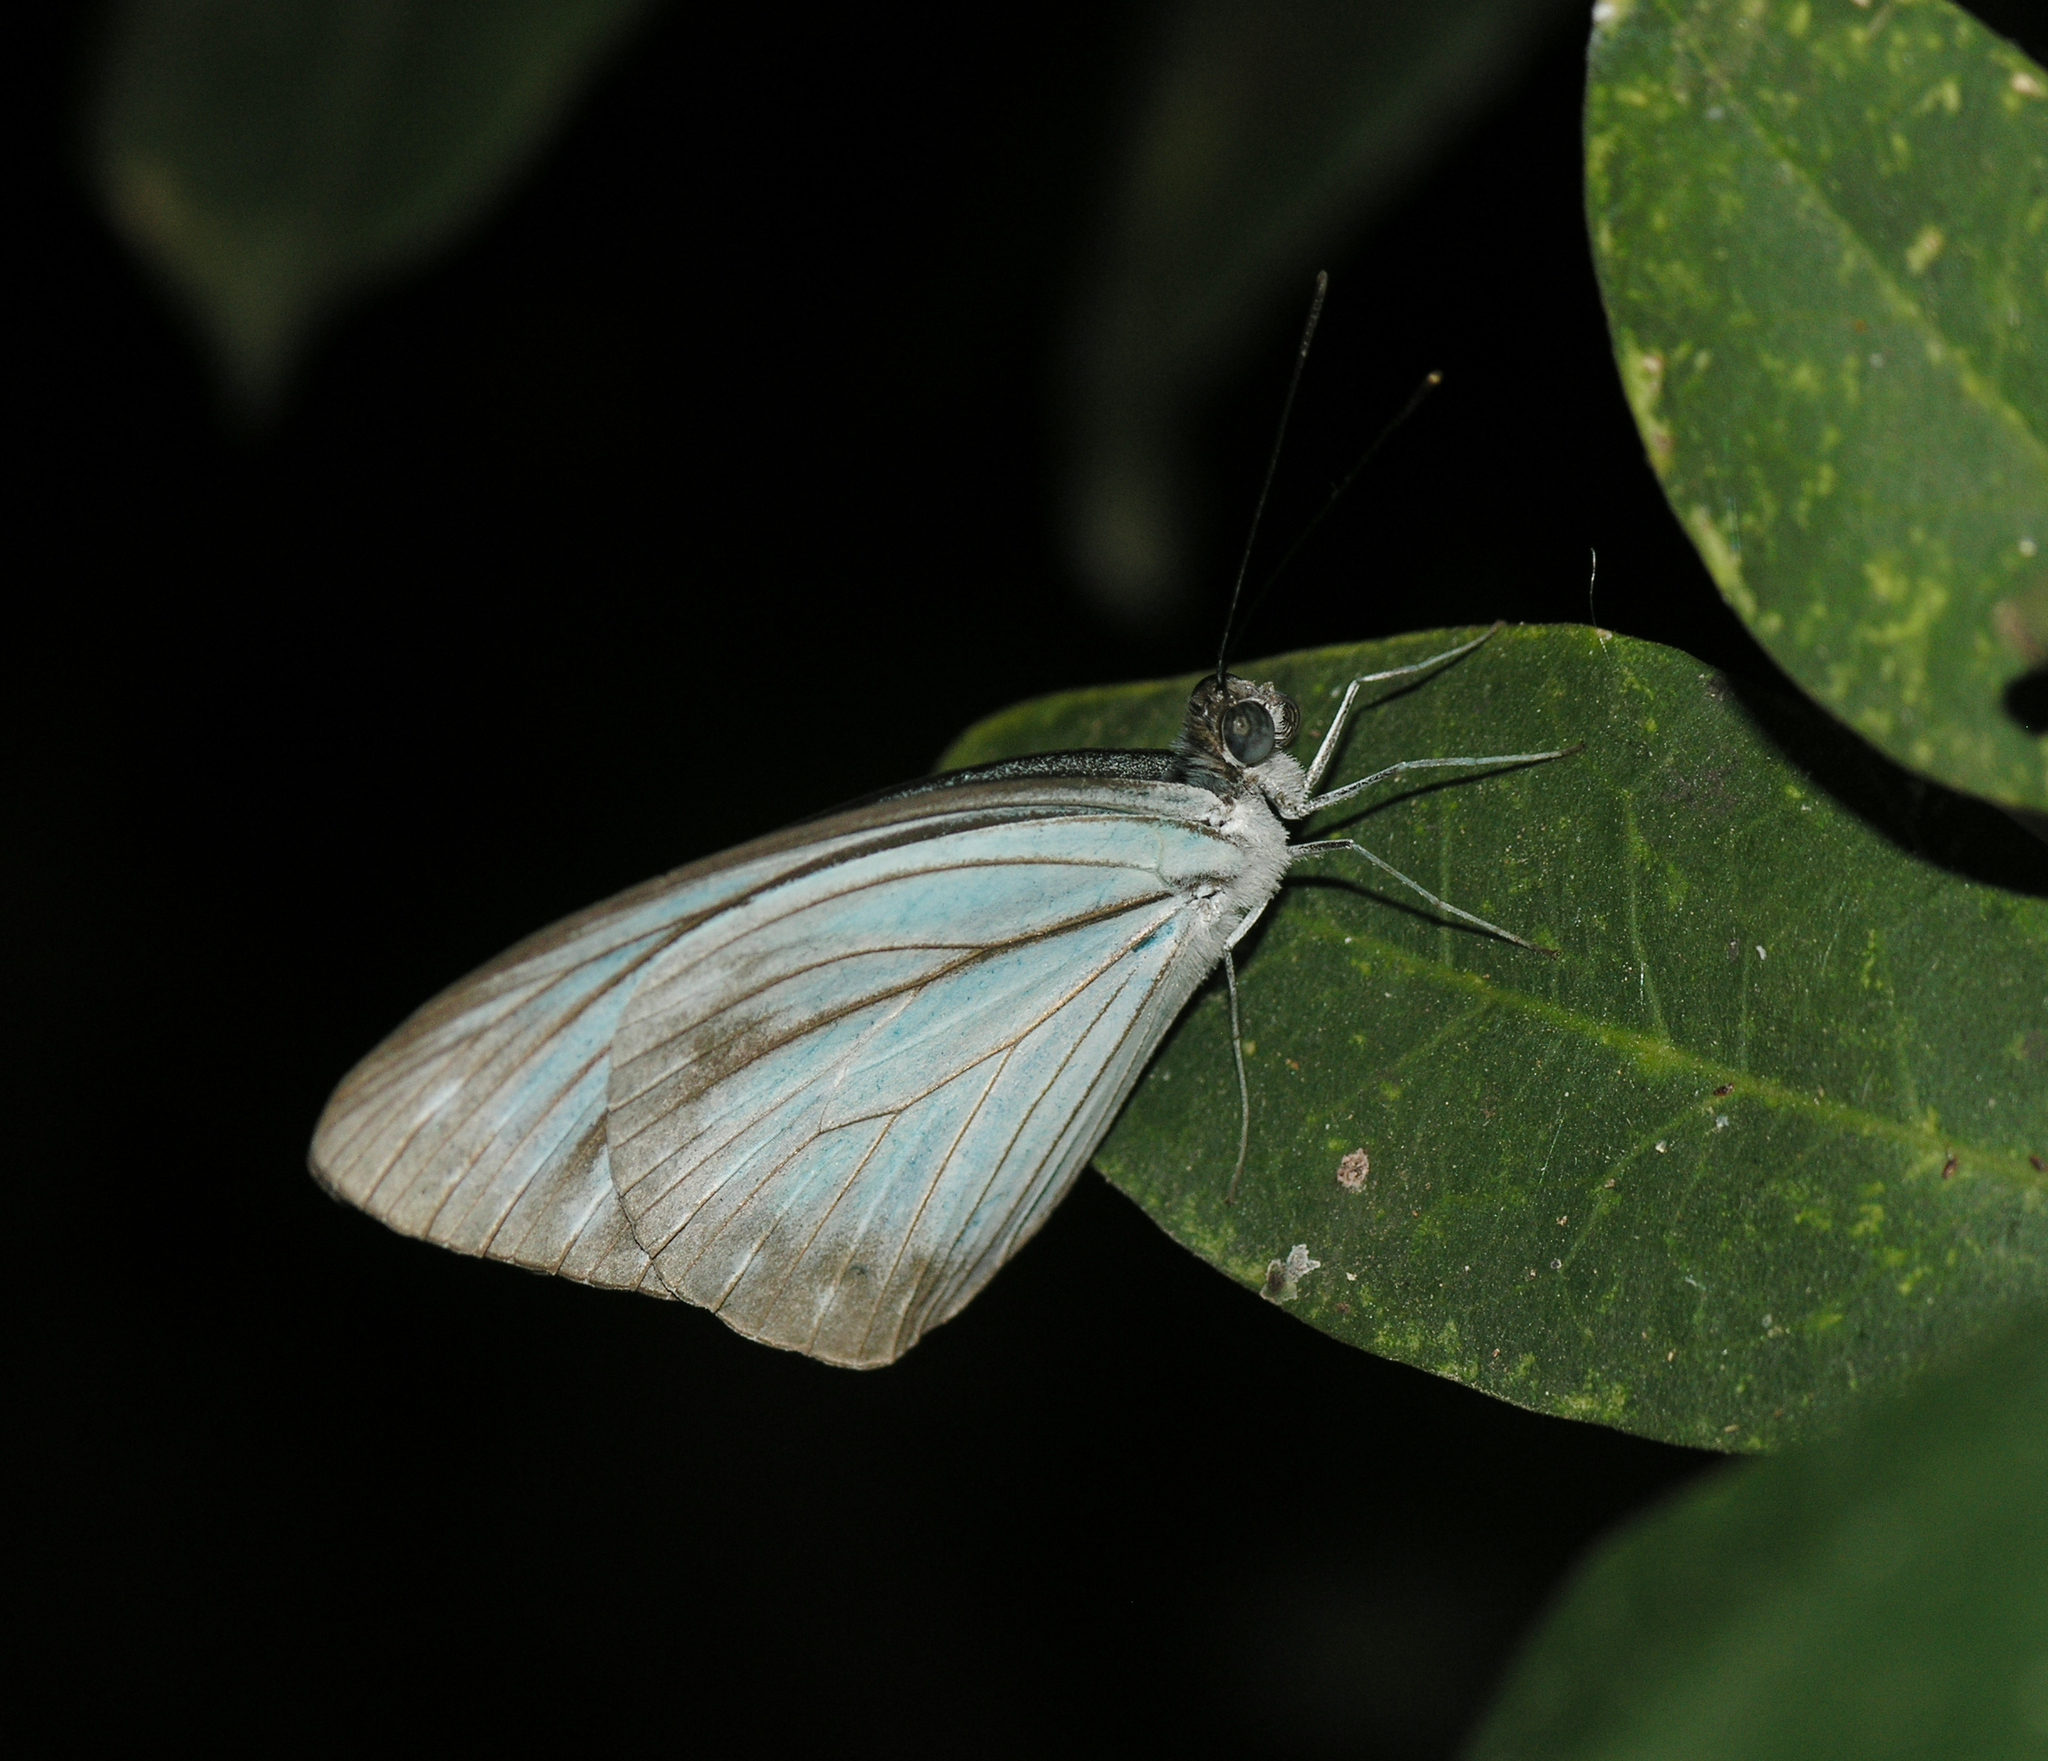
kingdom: Animalia
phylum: Arthropoda
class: Insecta
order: Lepidoptera
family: Pieridae
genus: Pareronia
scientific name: Pareronia hippia
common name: Indian wanderer
